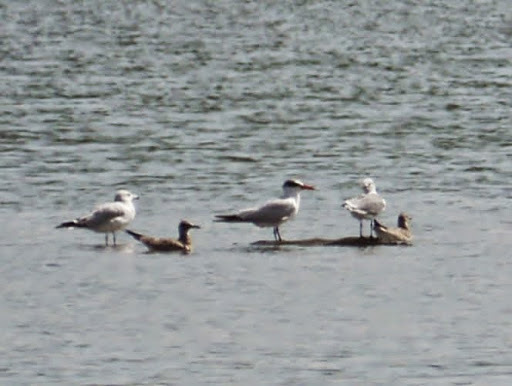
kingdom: Animalia
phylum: Chordata
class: Aves
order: Charadriiformes
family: Laridae
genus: Hydroprogne
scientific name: Hydroprogne caspia
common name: Caspian tern
